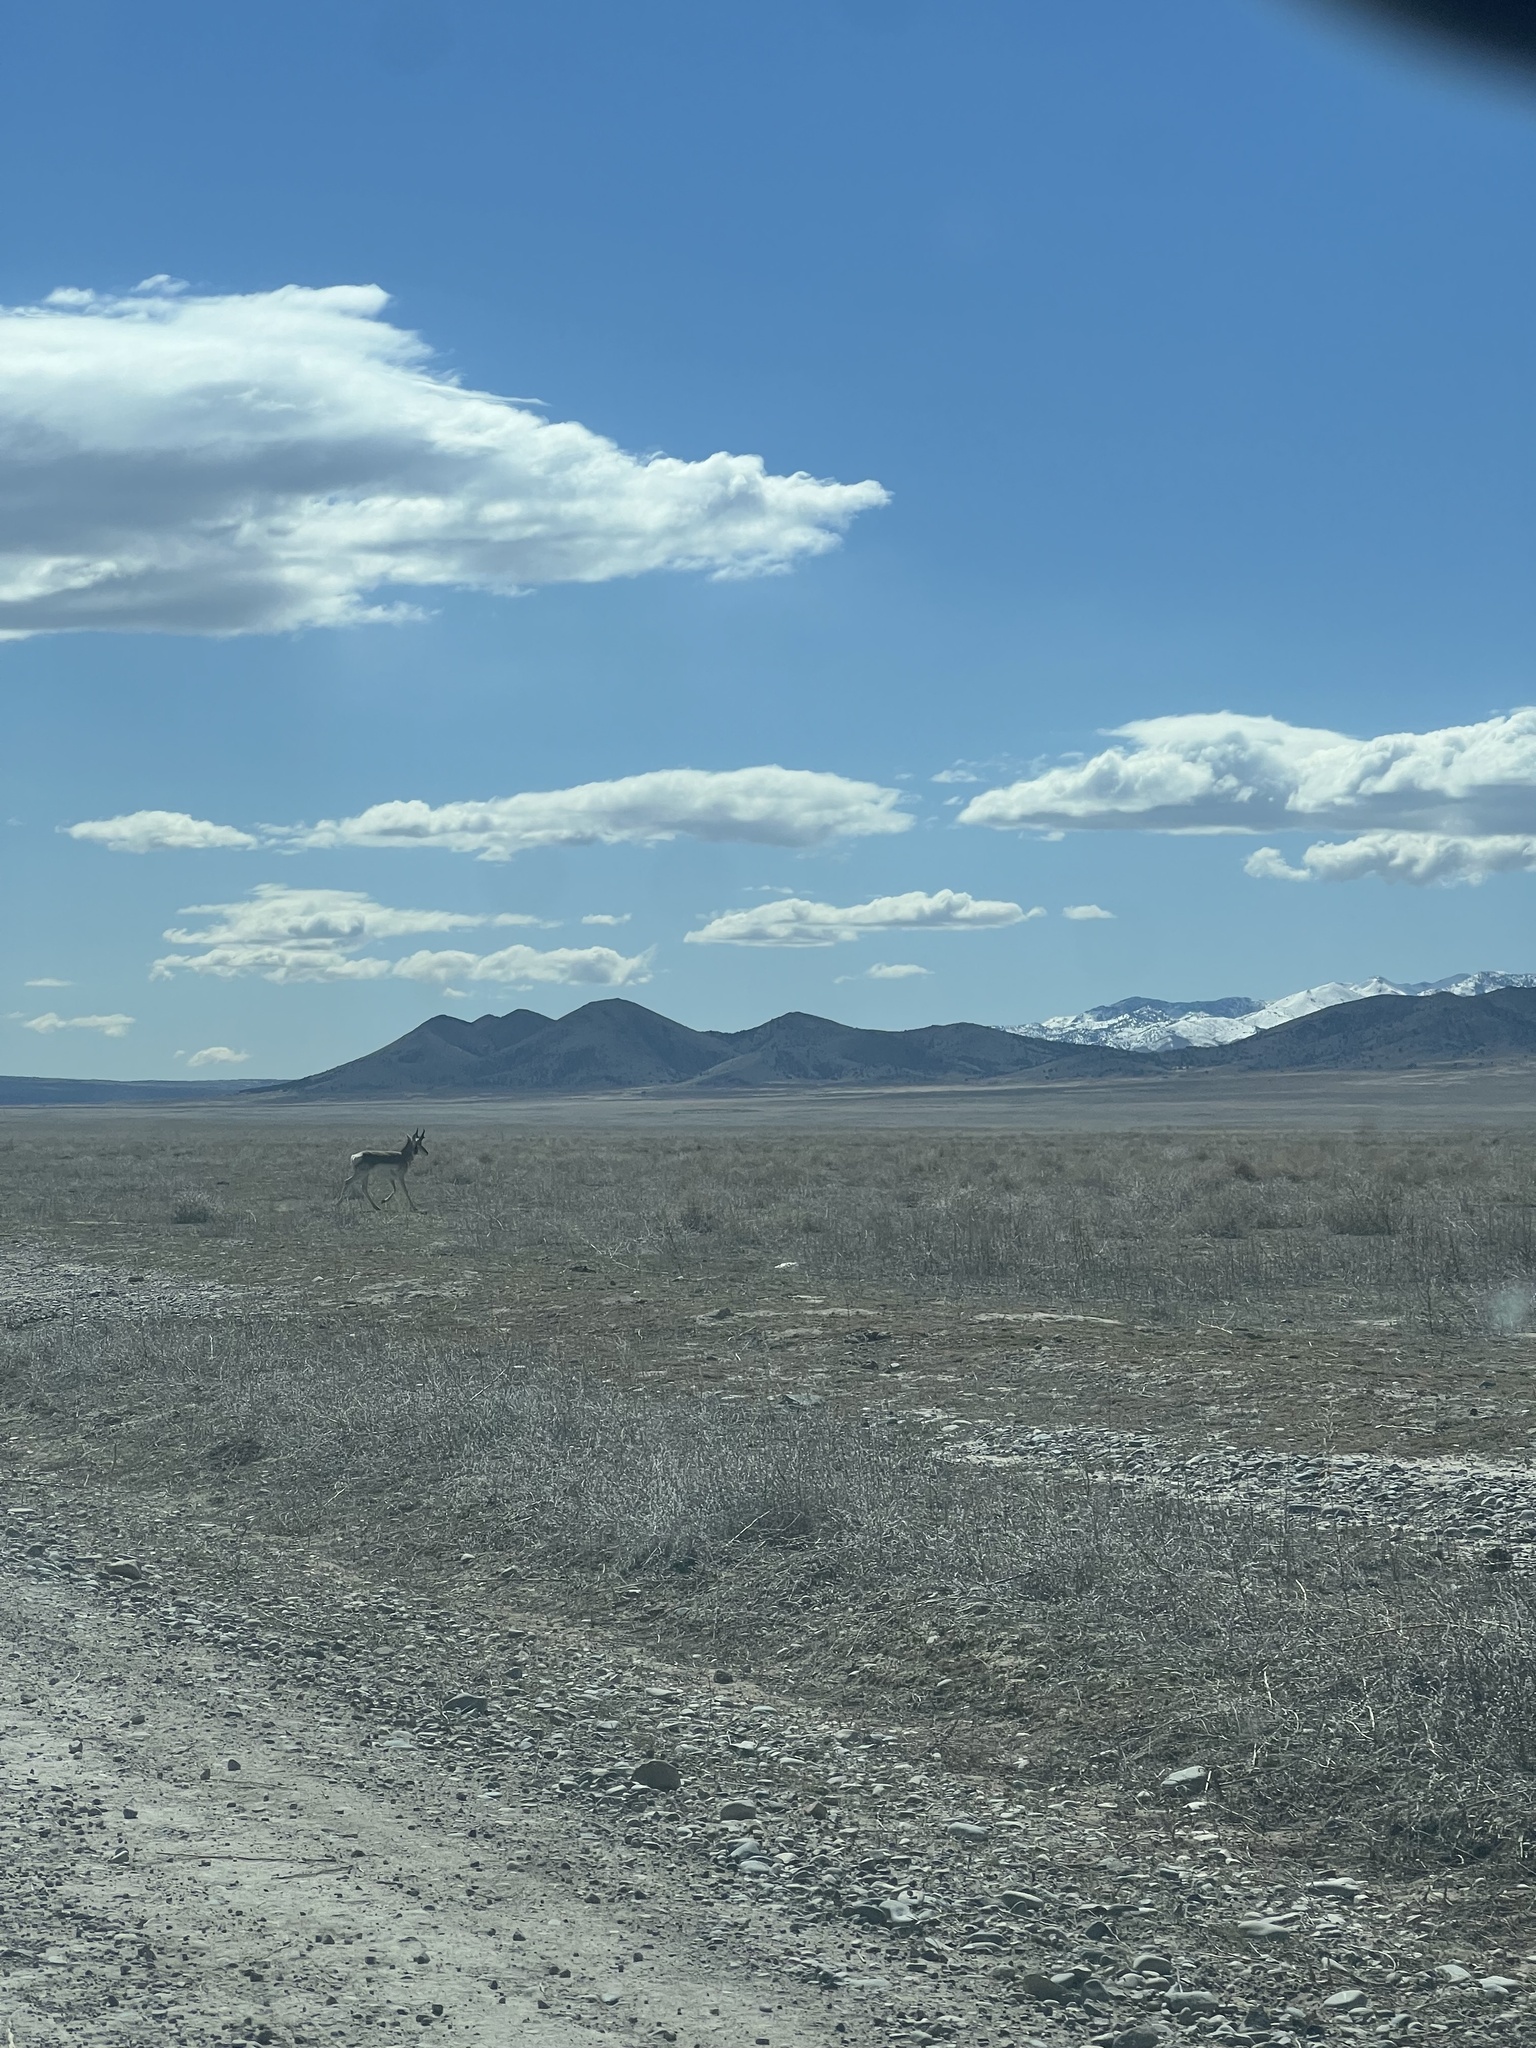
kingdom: Animalia
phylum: Chordata
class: Mammalia
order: Artiodactyla
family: Antilocapridae
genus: Antilocapra
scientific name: Antilocapra americana
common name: Pronghorn
